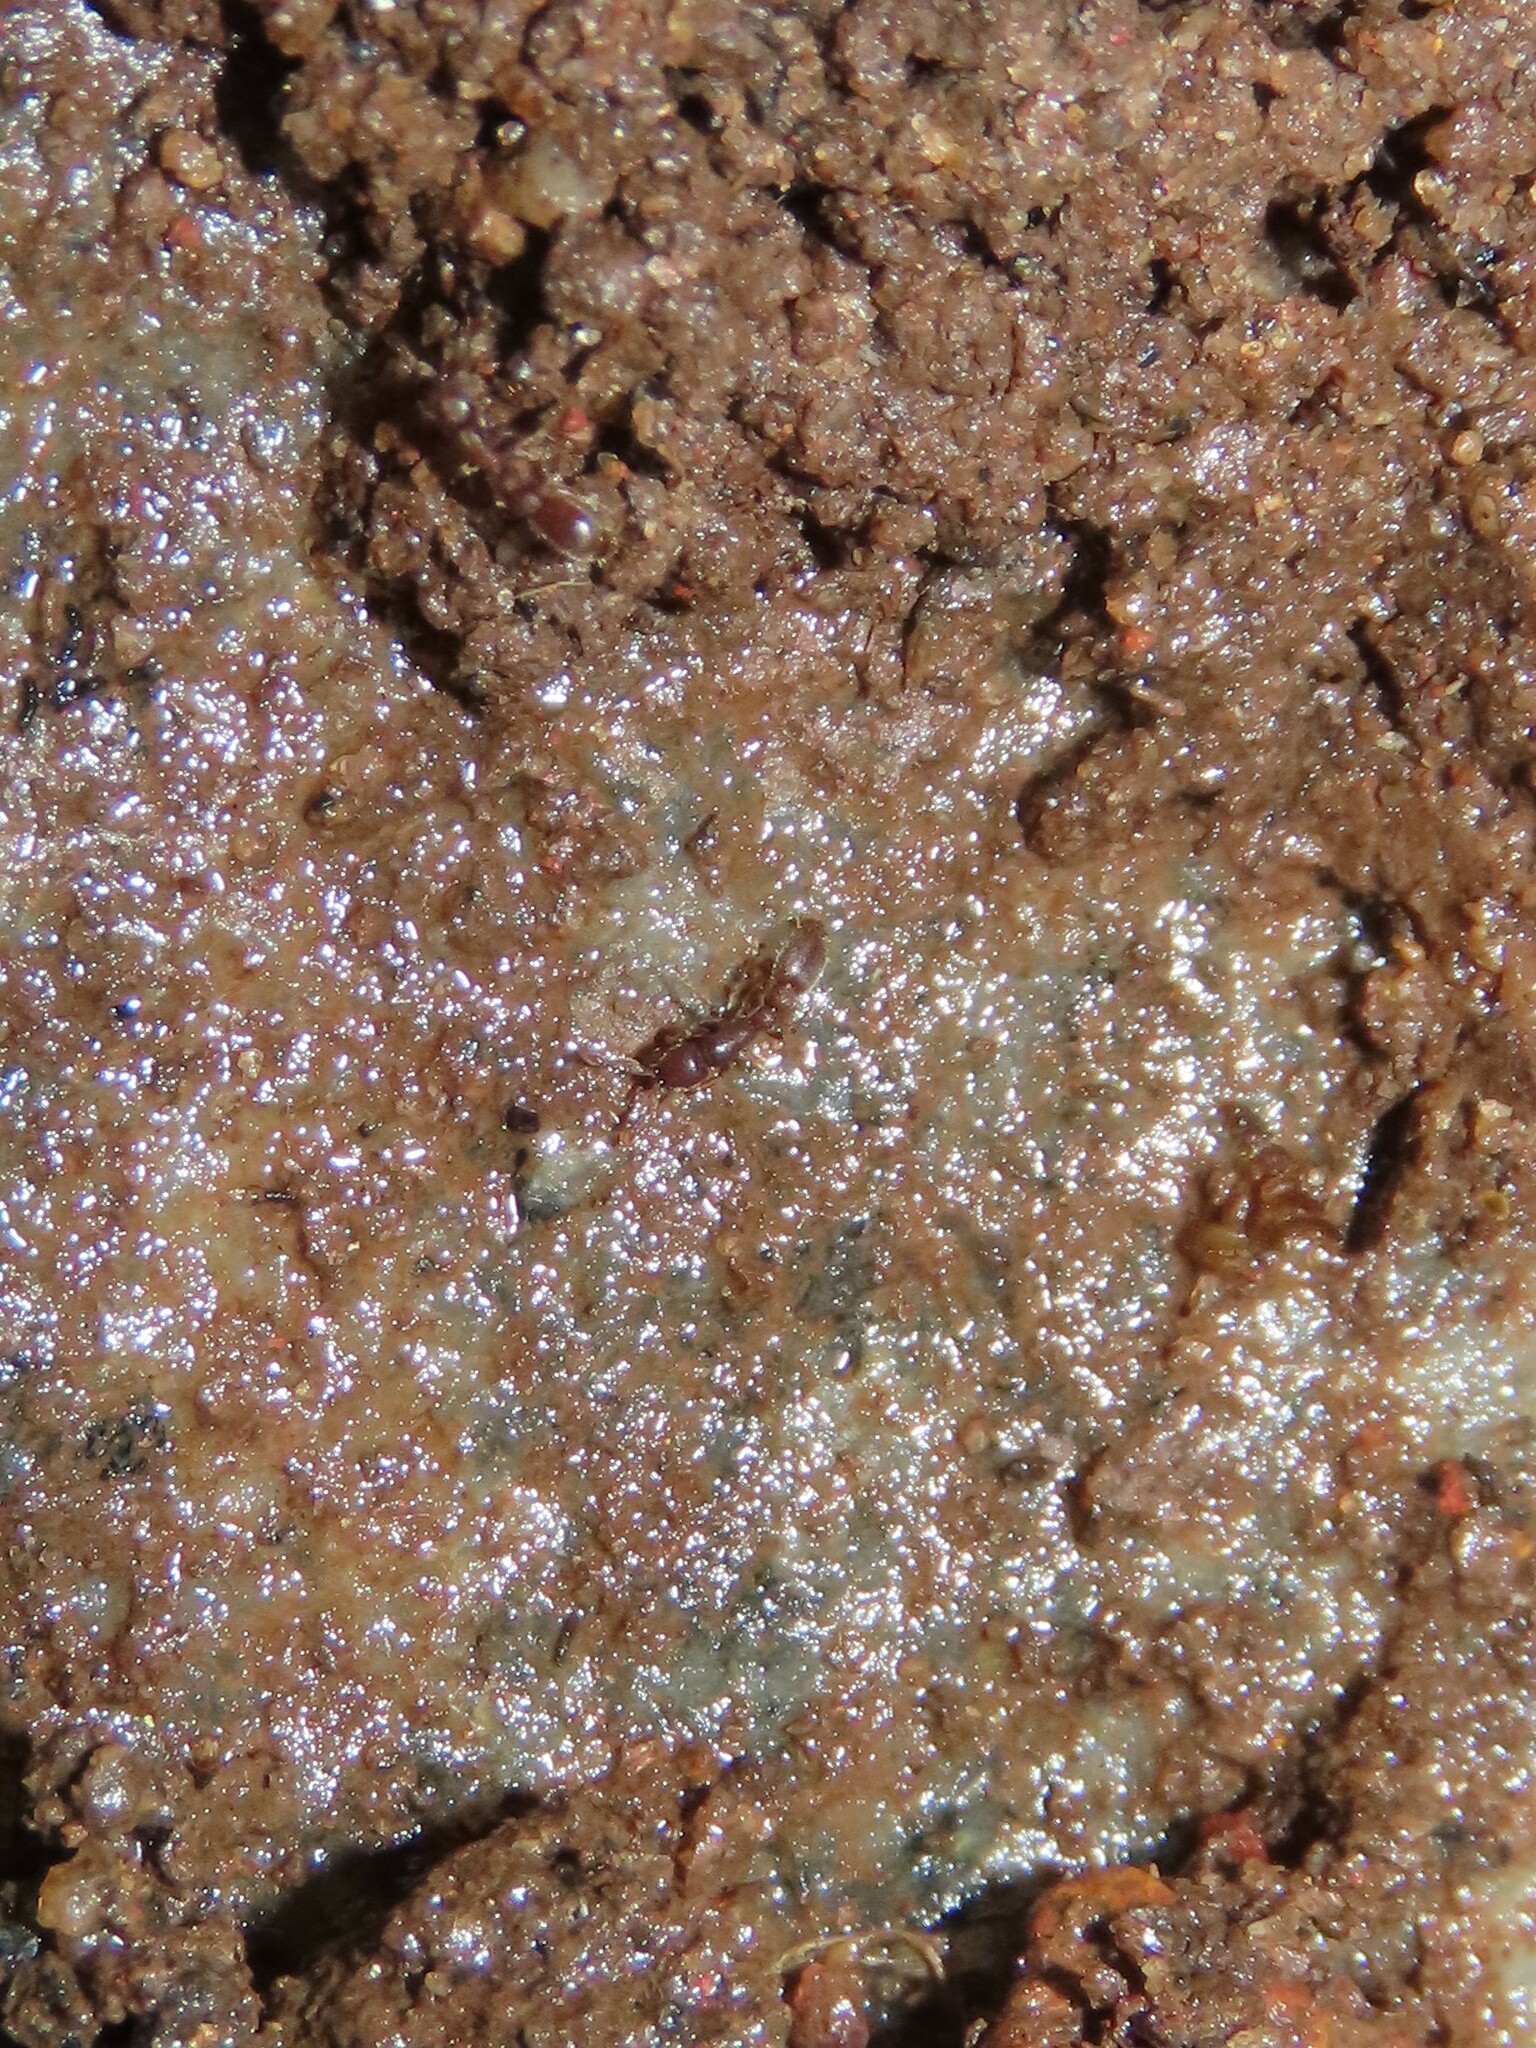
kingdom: Animalia
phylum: Arthropoda
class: Insecta
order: Hymenoptera
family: Formicidae
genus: Ooceraea
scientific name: Ooceraea biroi
